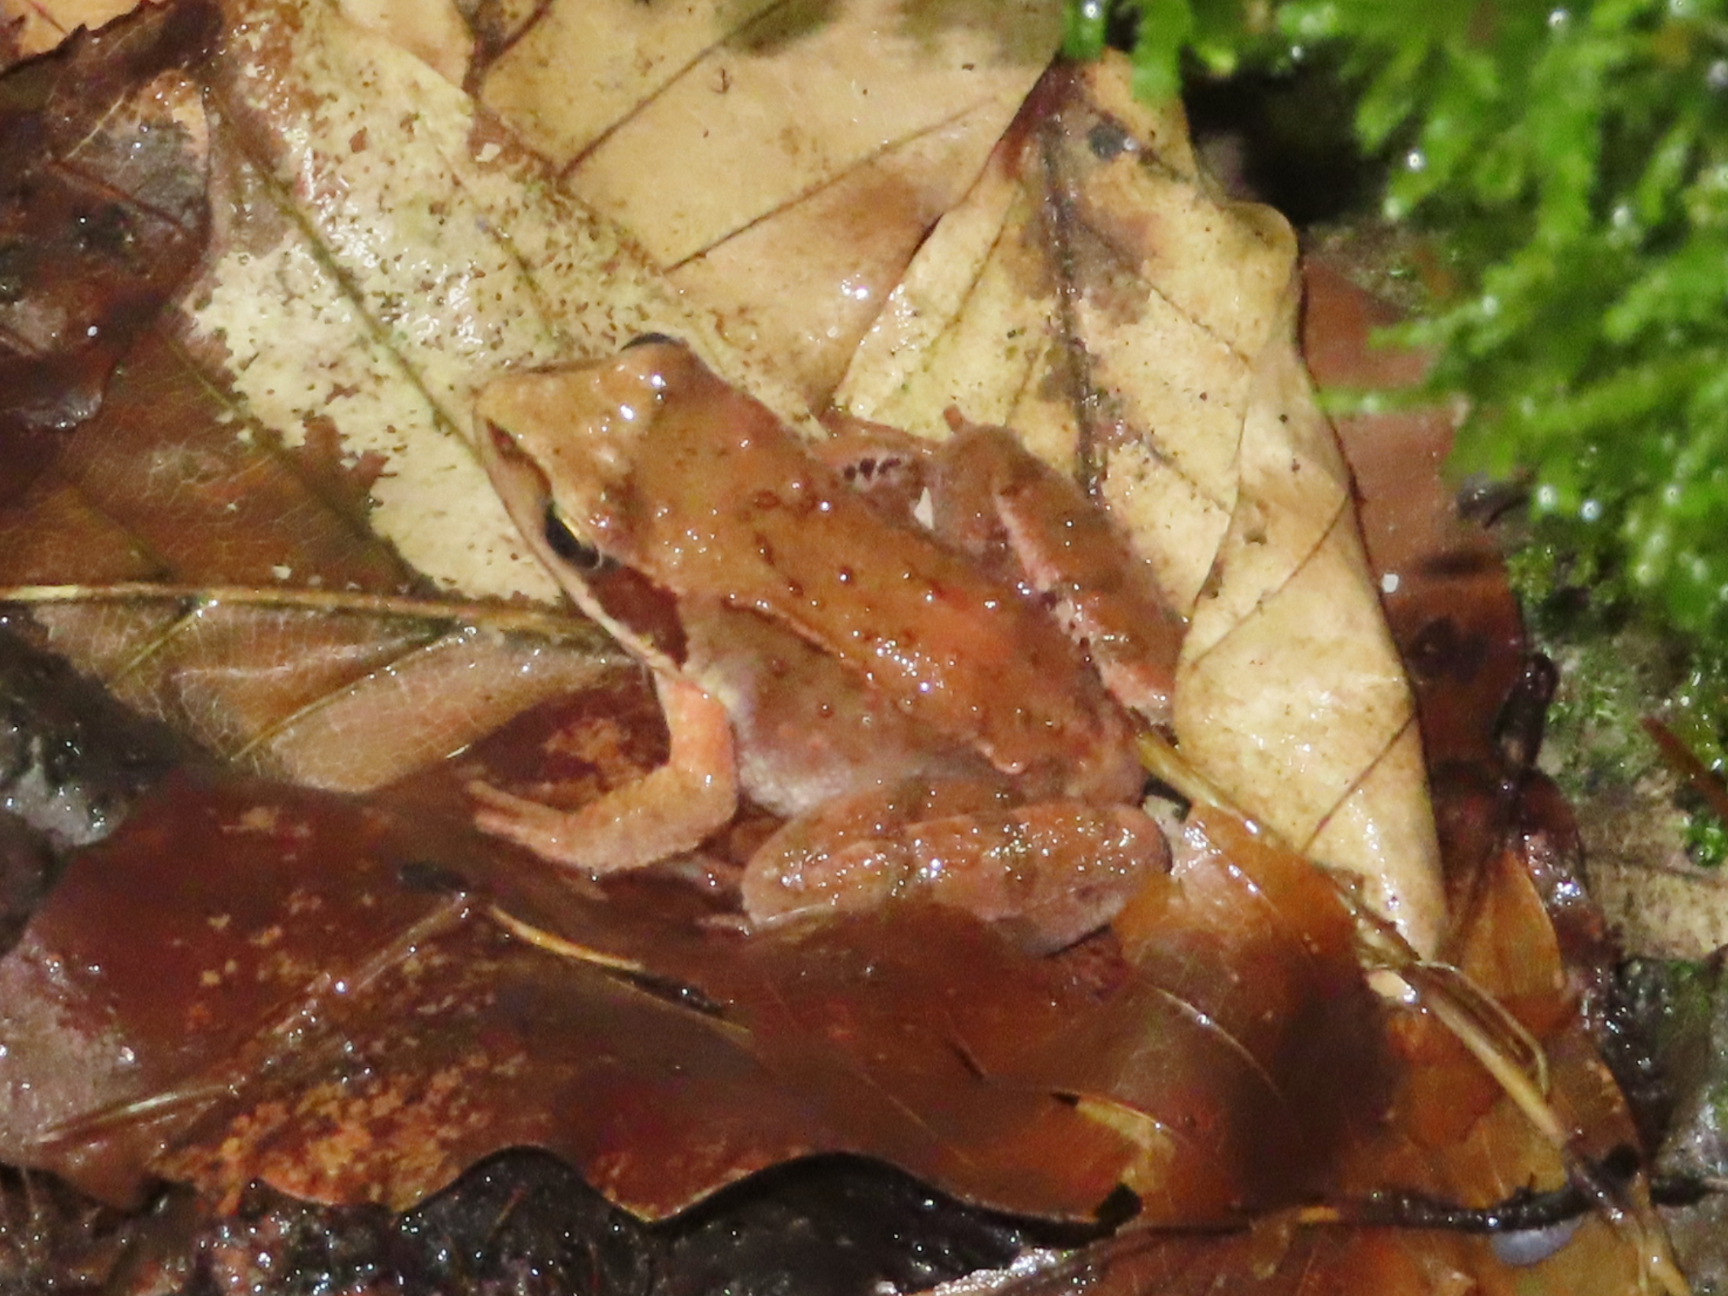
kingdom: Animalia
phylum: Chordata
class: Amphibia
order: Anura
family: Ranidae
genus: Rana
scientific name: Rana temporaria
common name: Common frog
